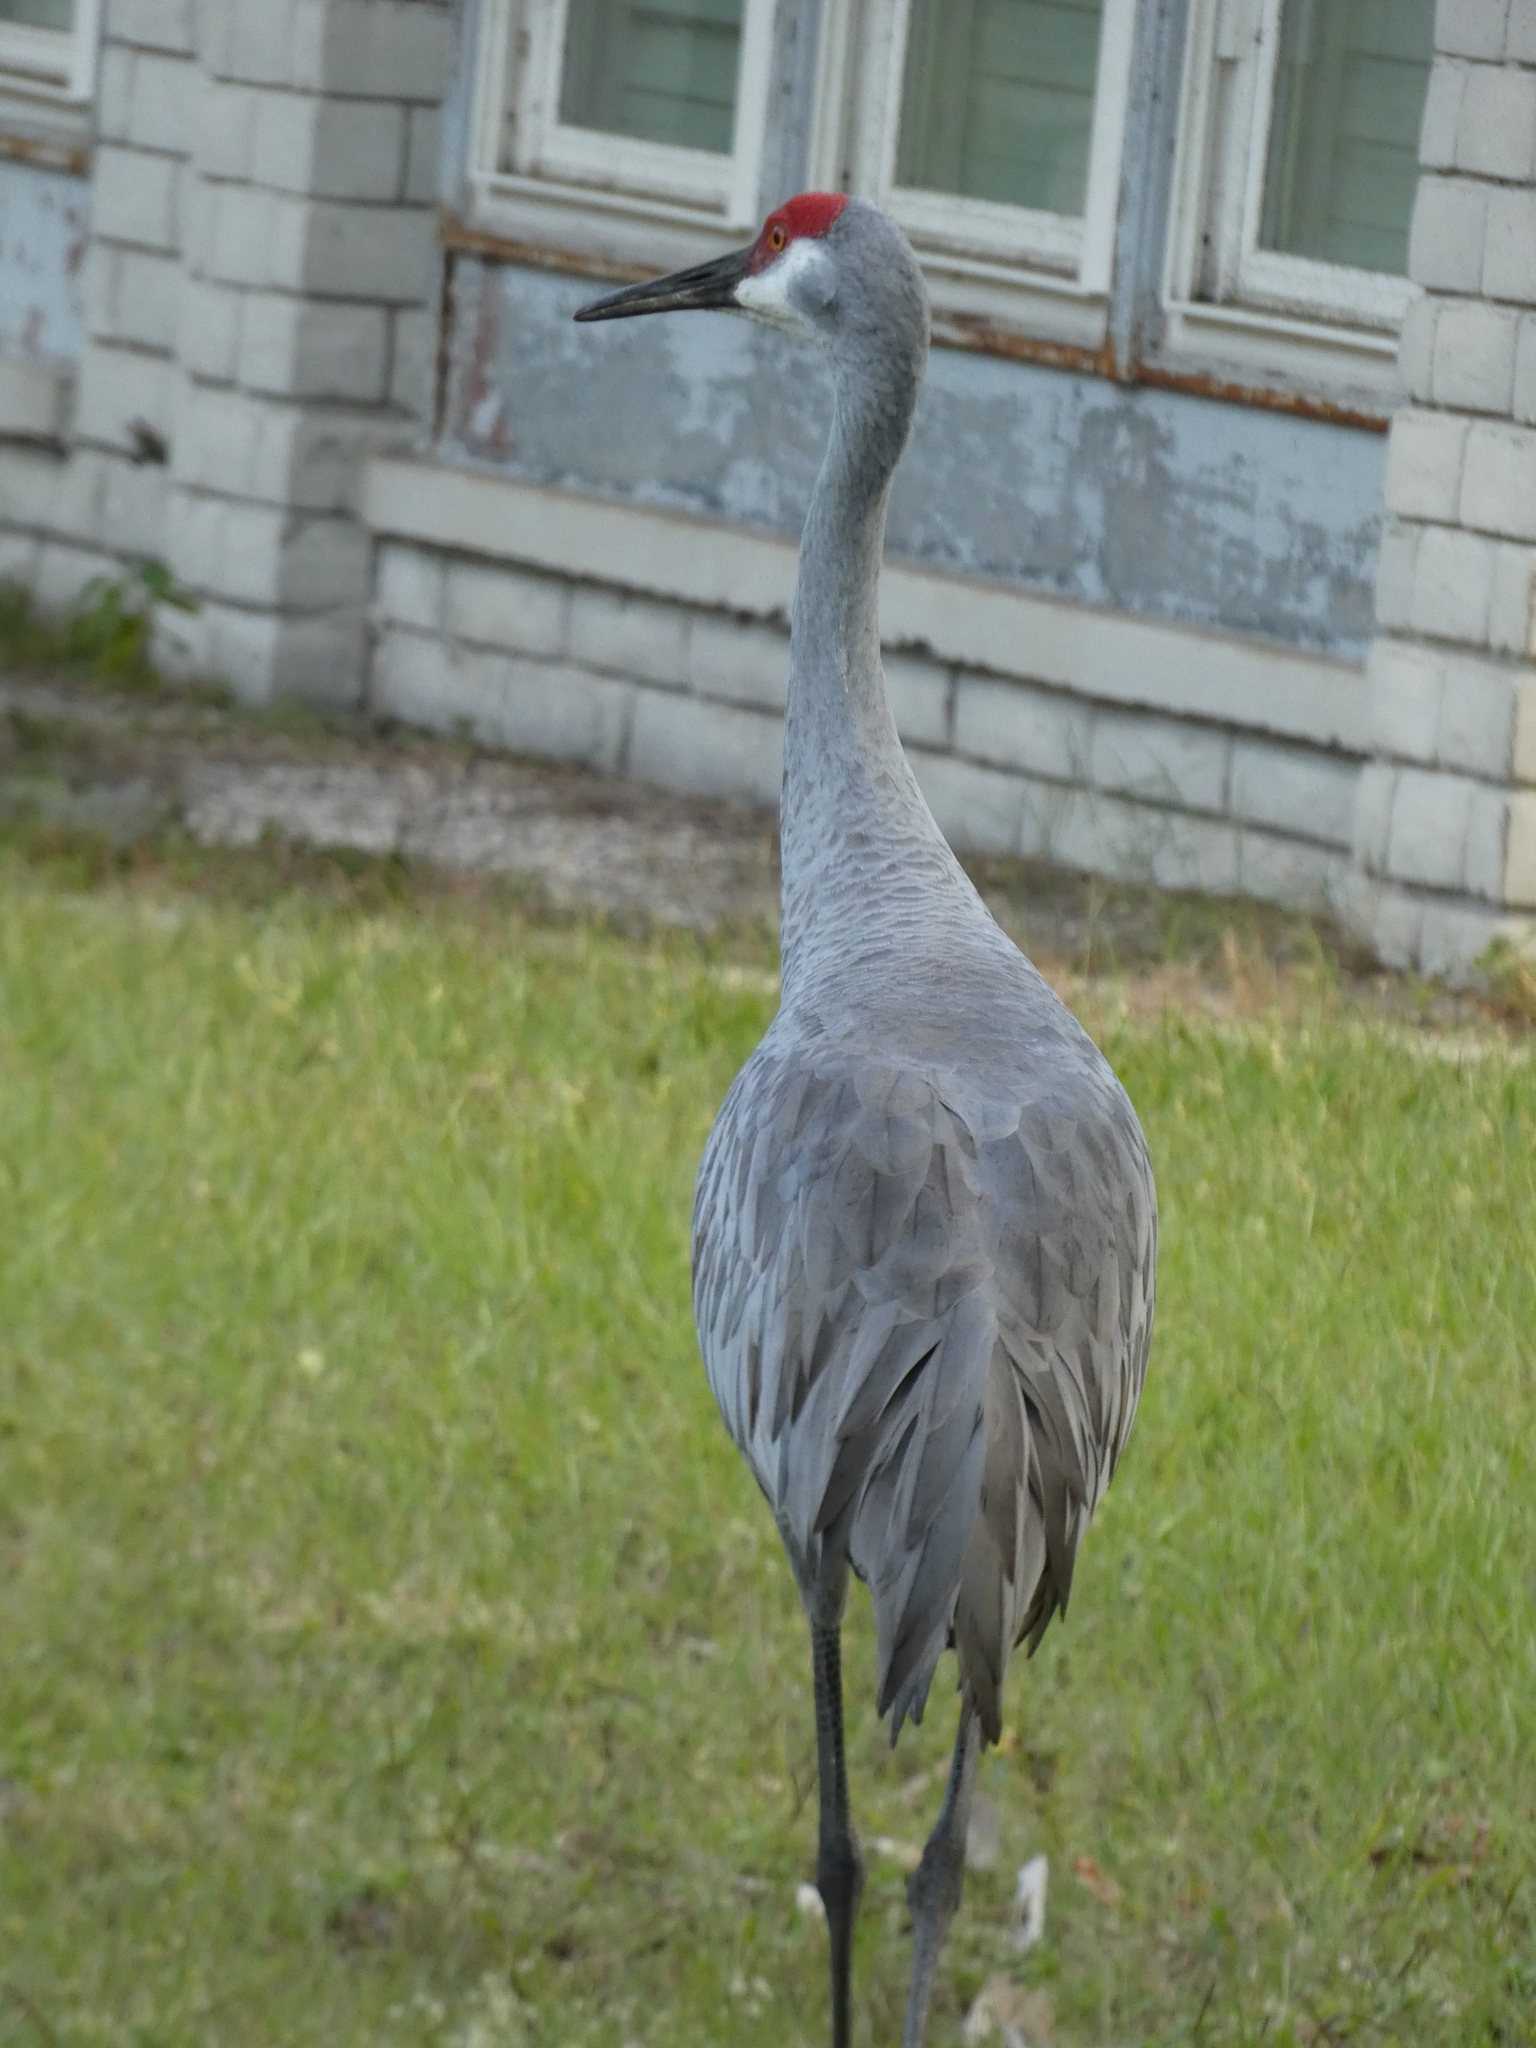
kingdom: Animalia
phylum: Chordata
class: Aves
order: Gruiformes
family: Gruidae
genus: Grus
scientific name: Grus canadensis
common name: Sandhill crane
